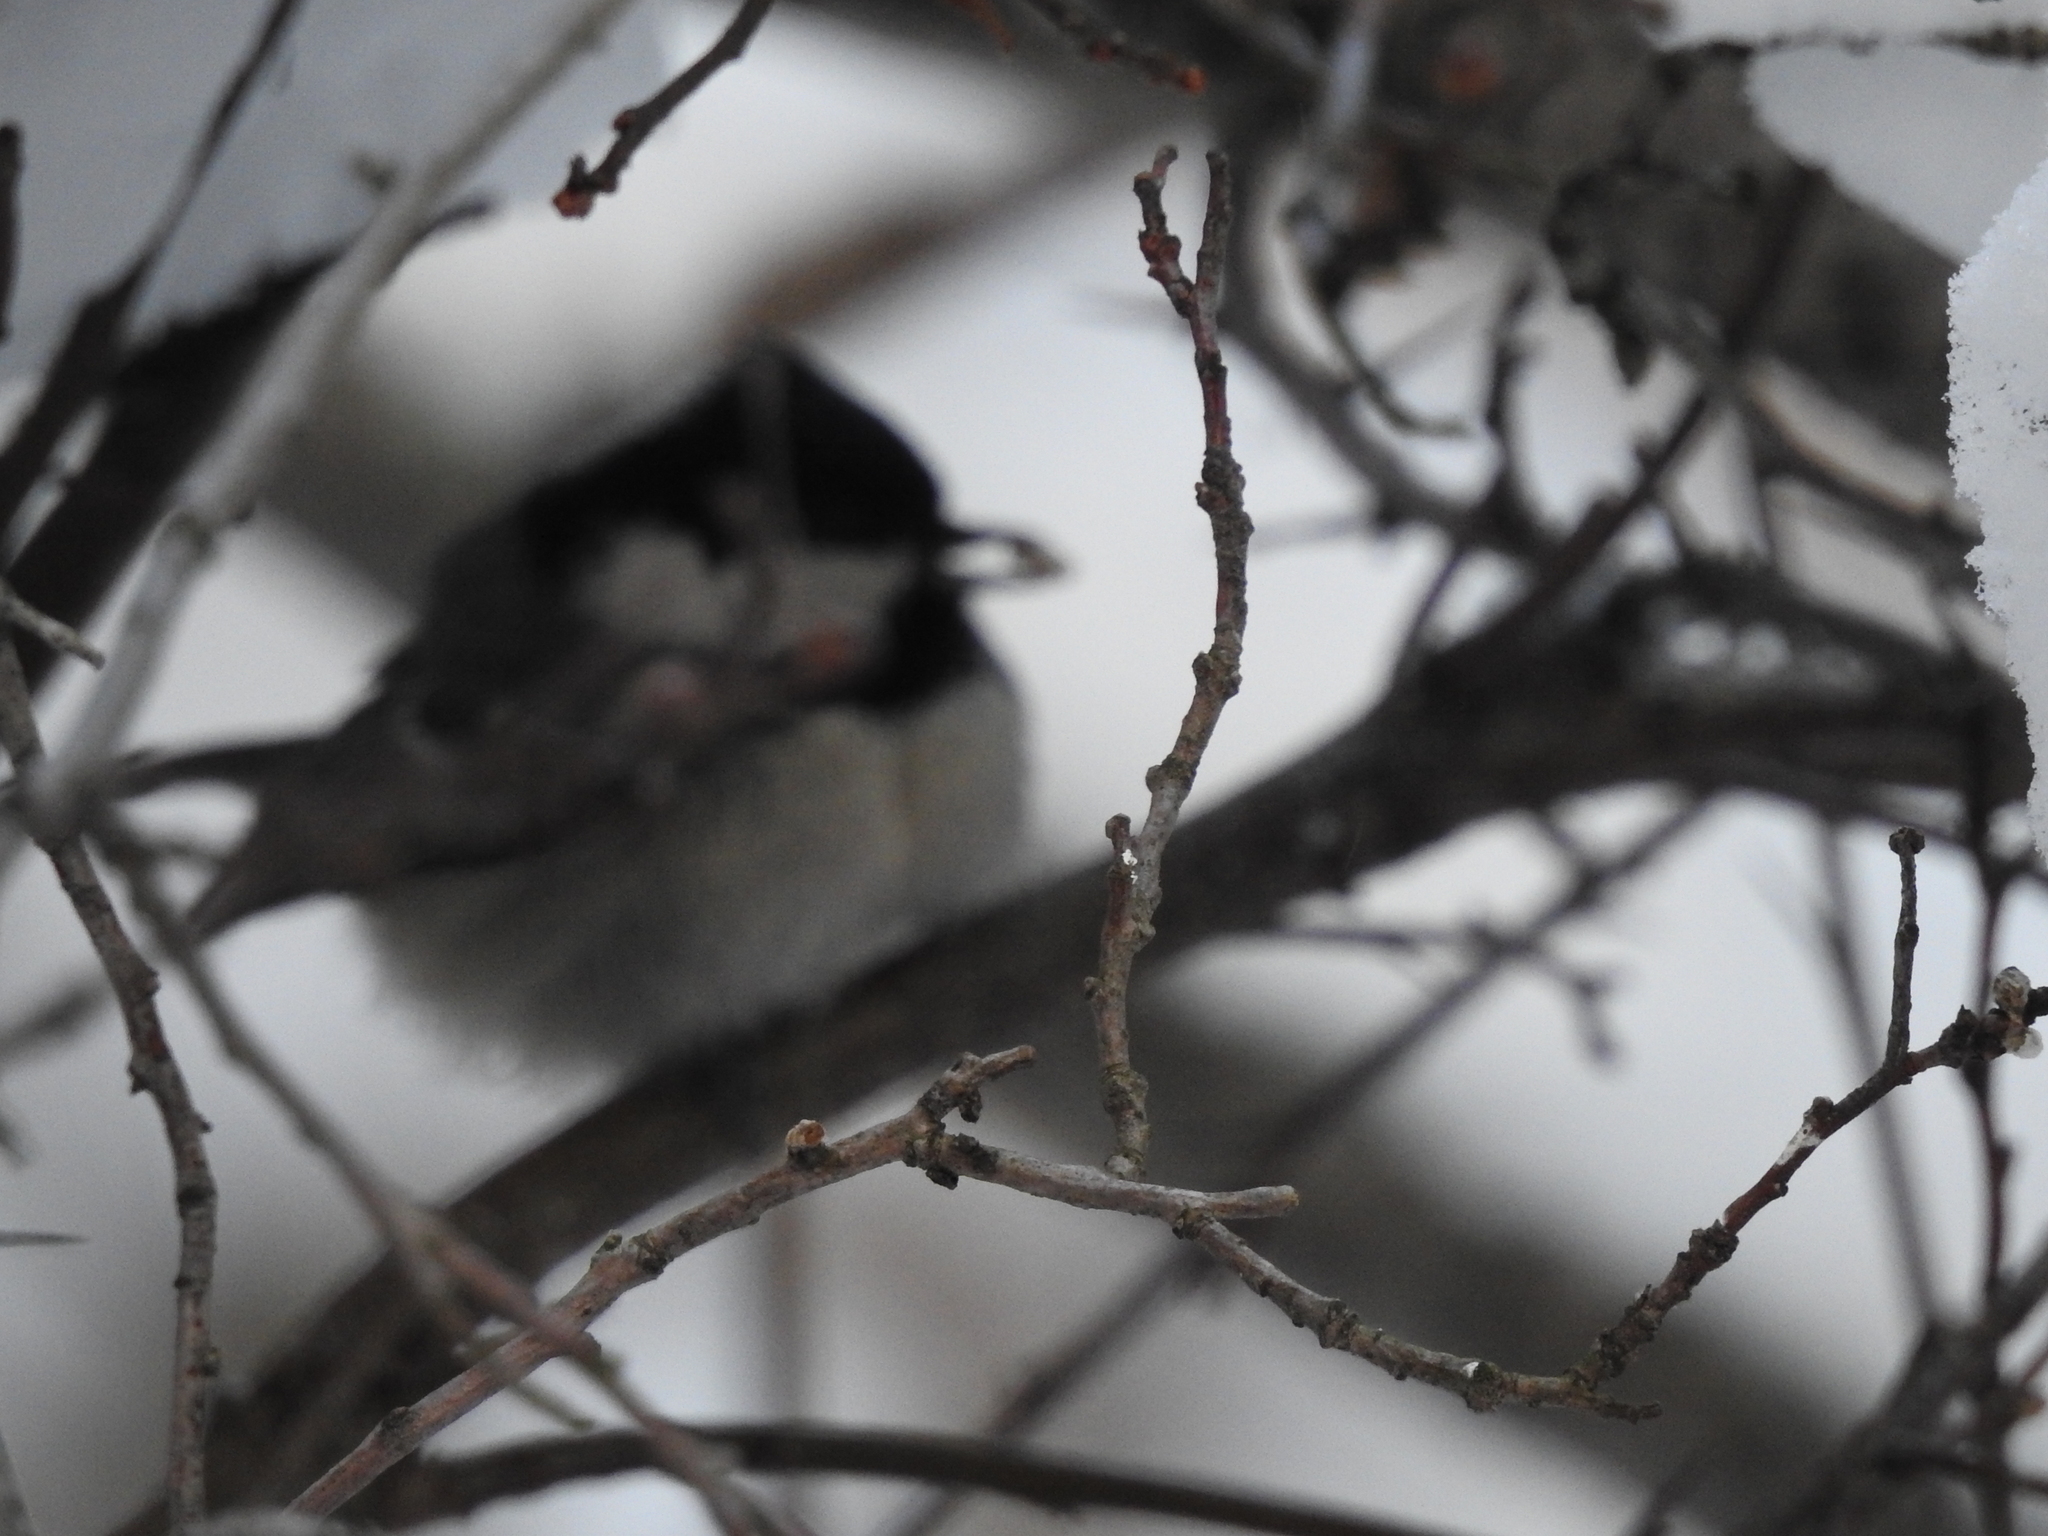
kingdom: Animalia
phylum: Chordata
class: Aves
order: Passeriformes
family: Paridae
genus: Periparus
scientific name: Periparus ater
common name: Coal tit
